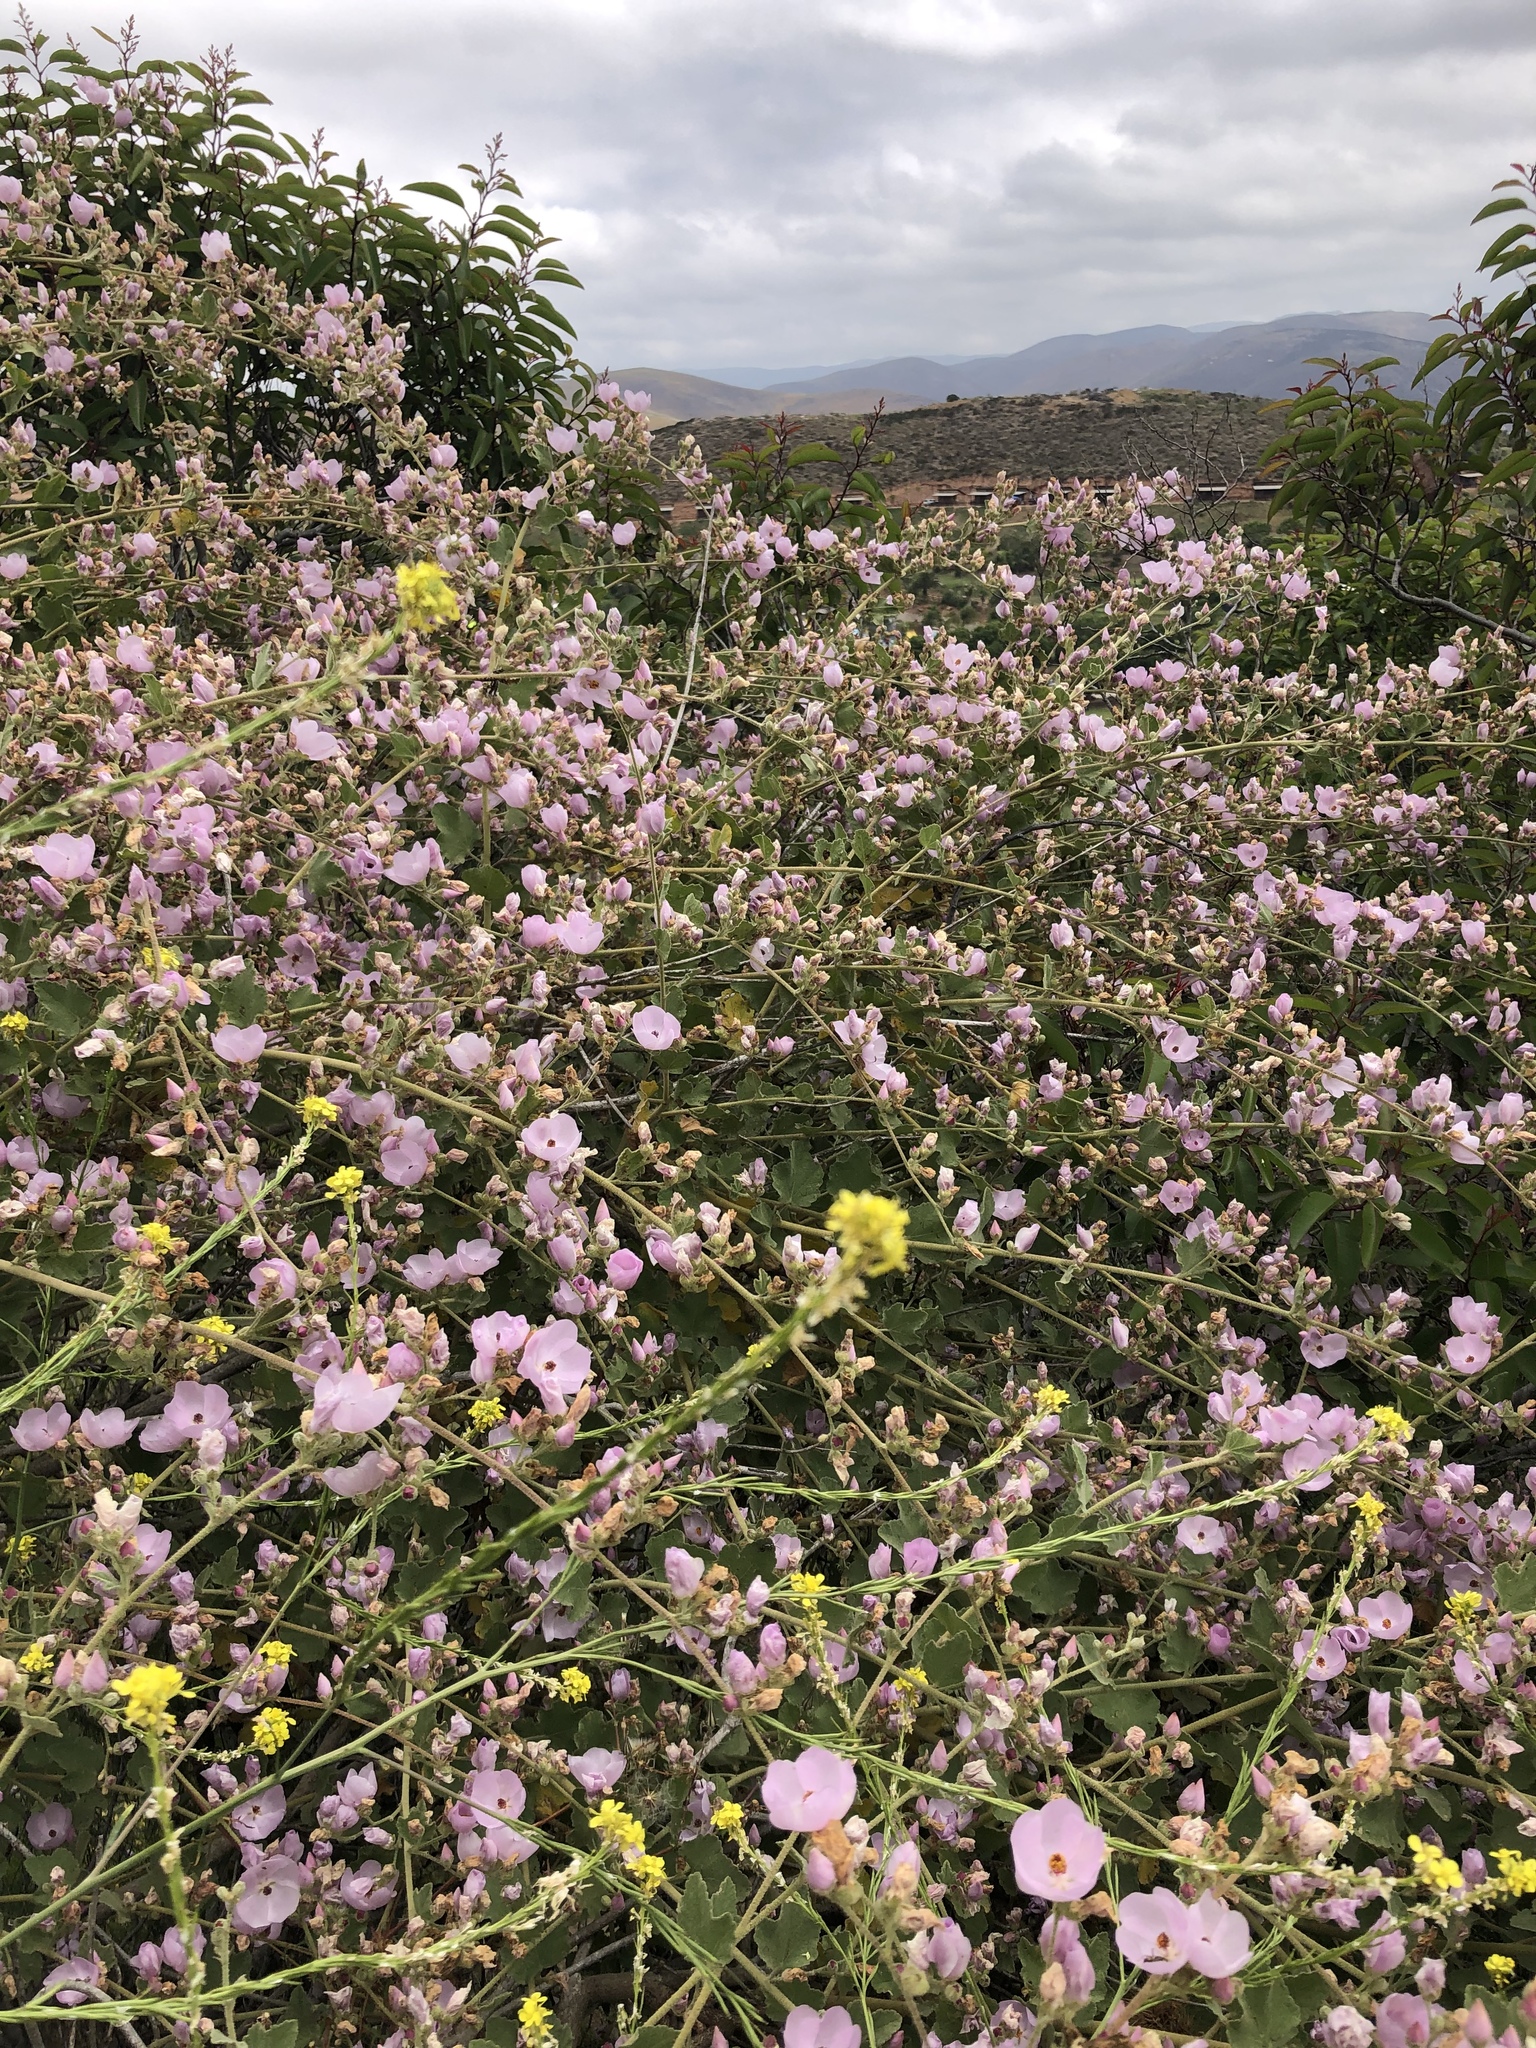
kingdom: Plantae
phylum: Tracheophyta
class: Magnoliopsida
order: Malvales
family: Malvaceae
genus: Malacothamnus
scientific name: Malacothamnus fasciculatus
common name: Sant cruz island bush-mallow
